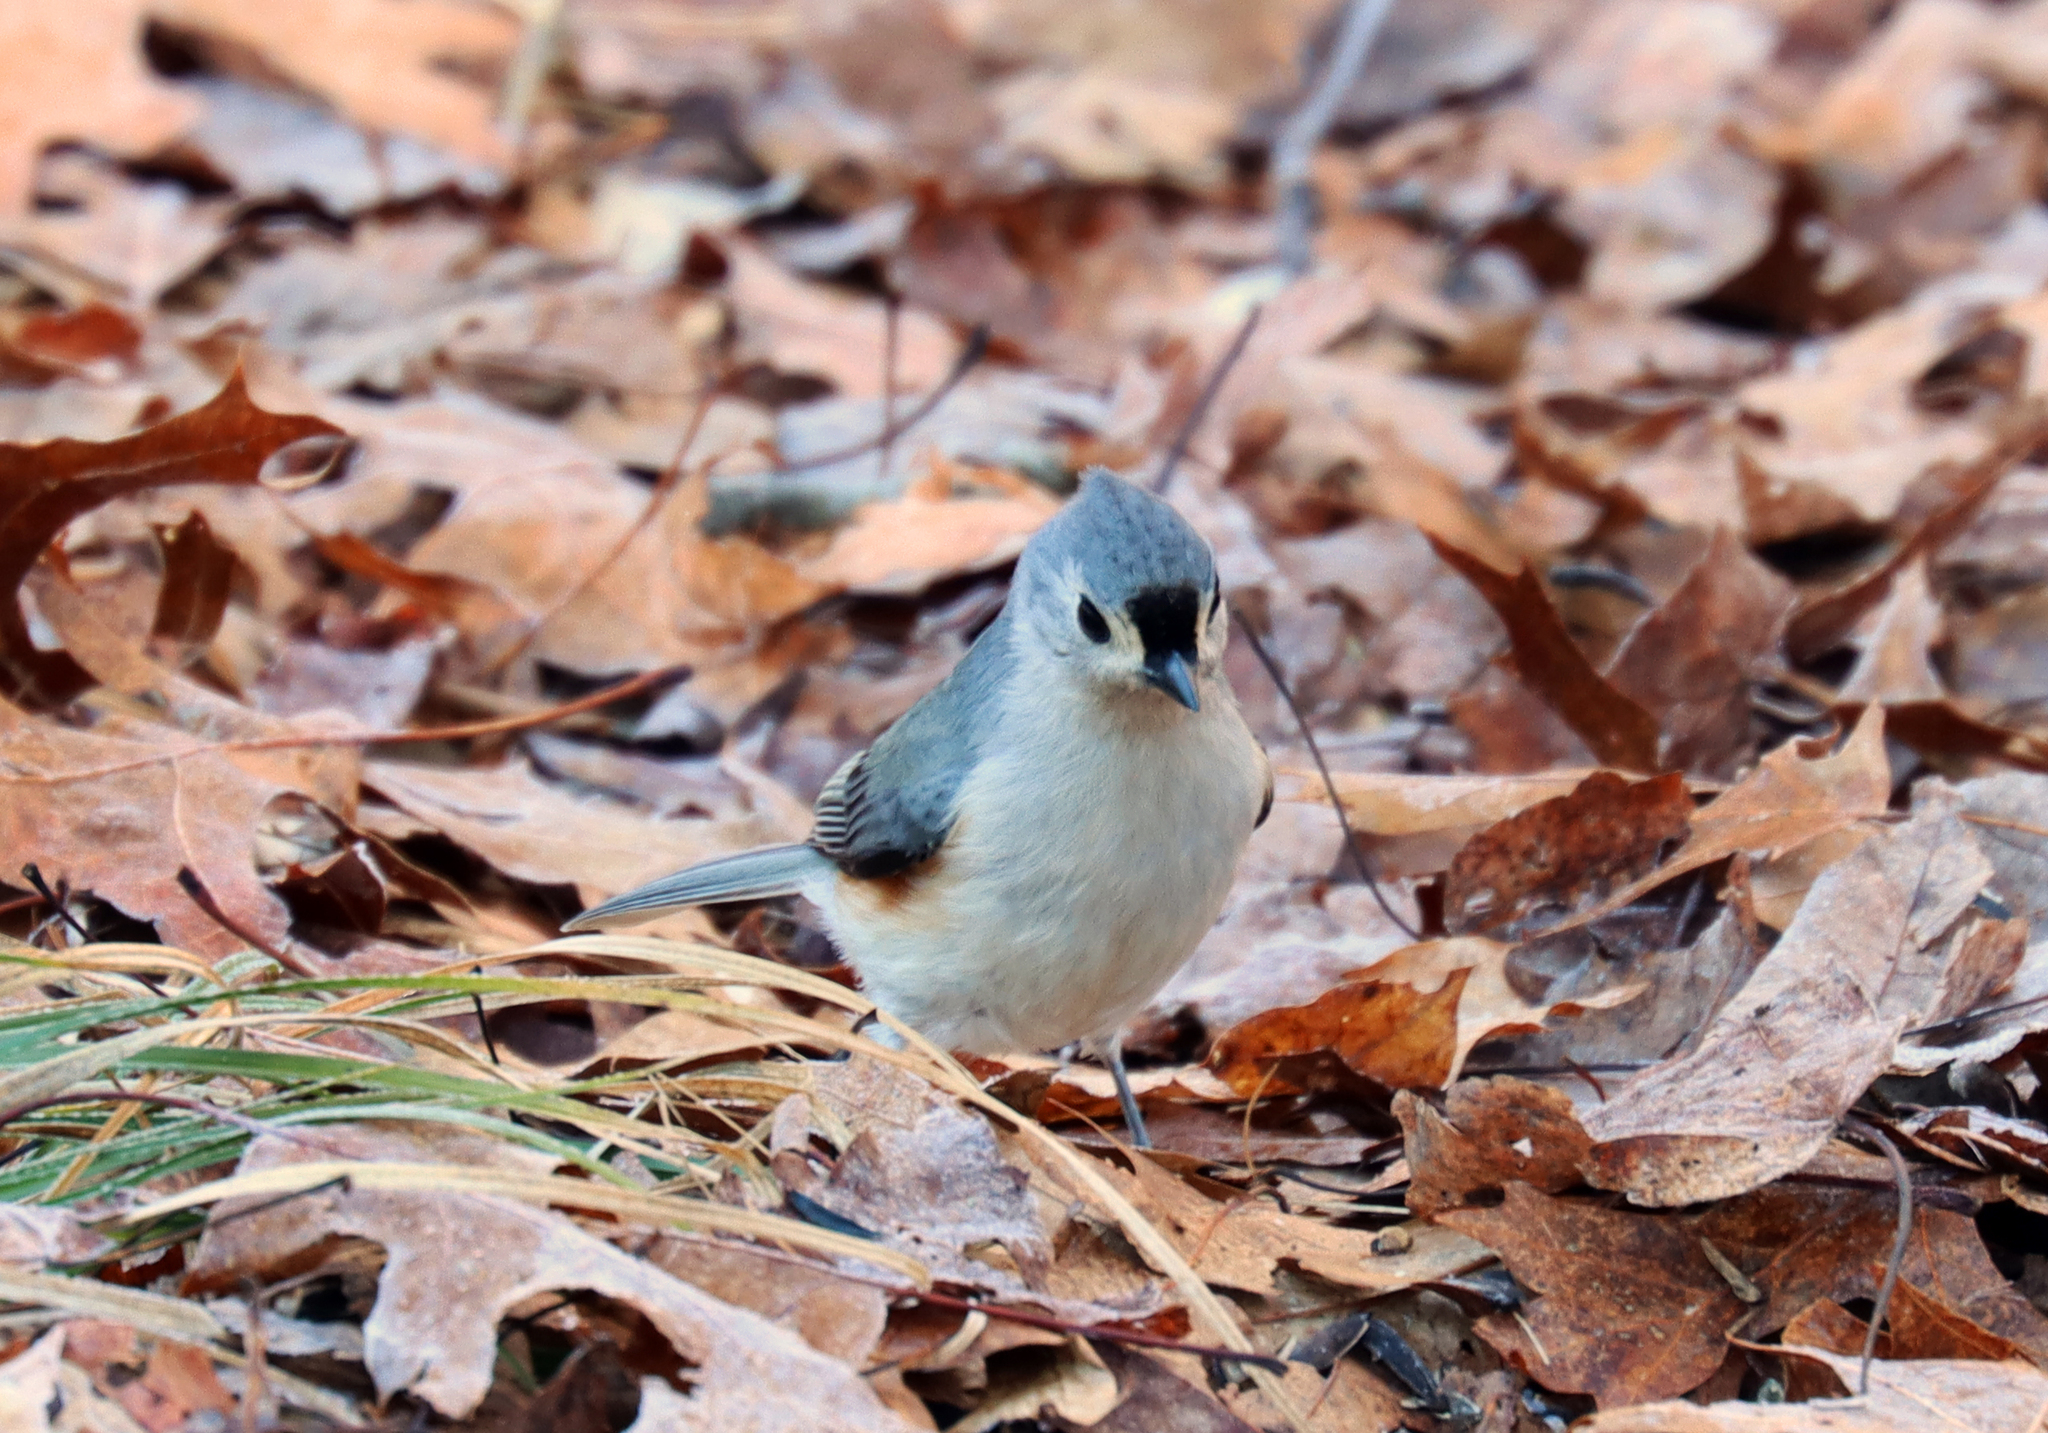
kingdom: Animalia
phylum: Chordata
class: Aves
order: Passeriformes
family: Paridae
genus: Baeolophus
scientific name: Baeolophus bicolor
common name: Tufted titmouse
